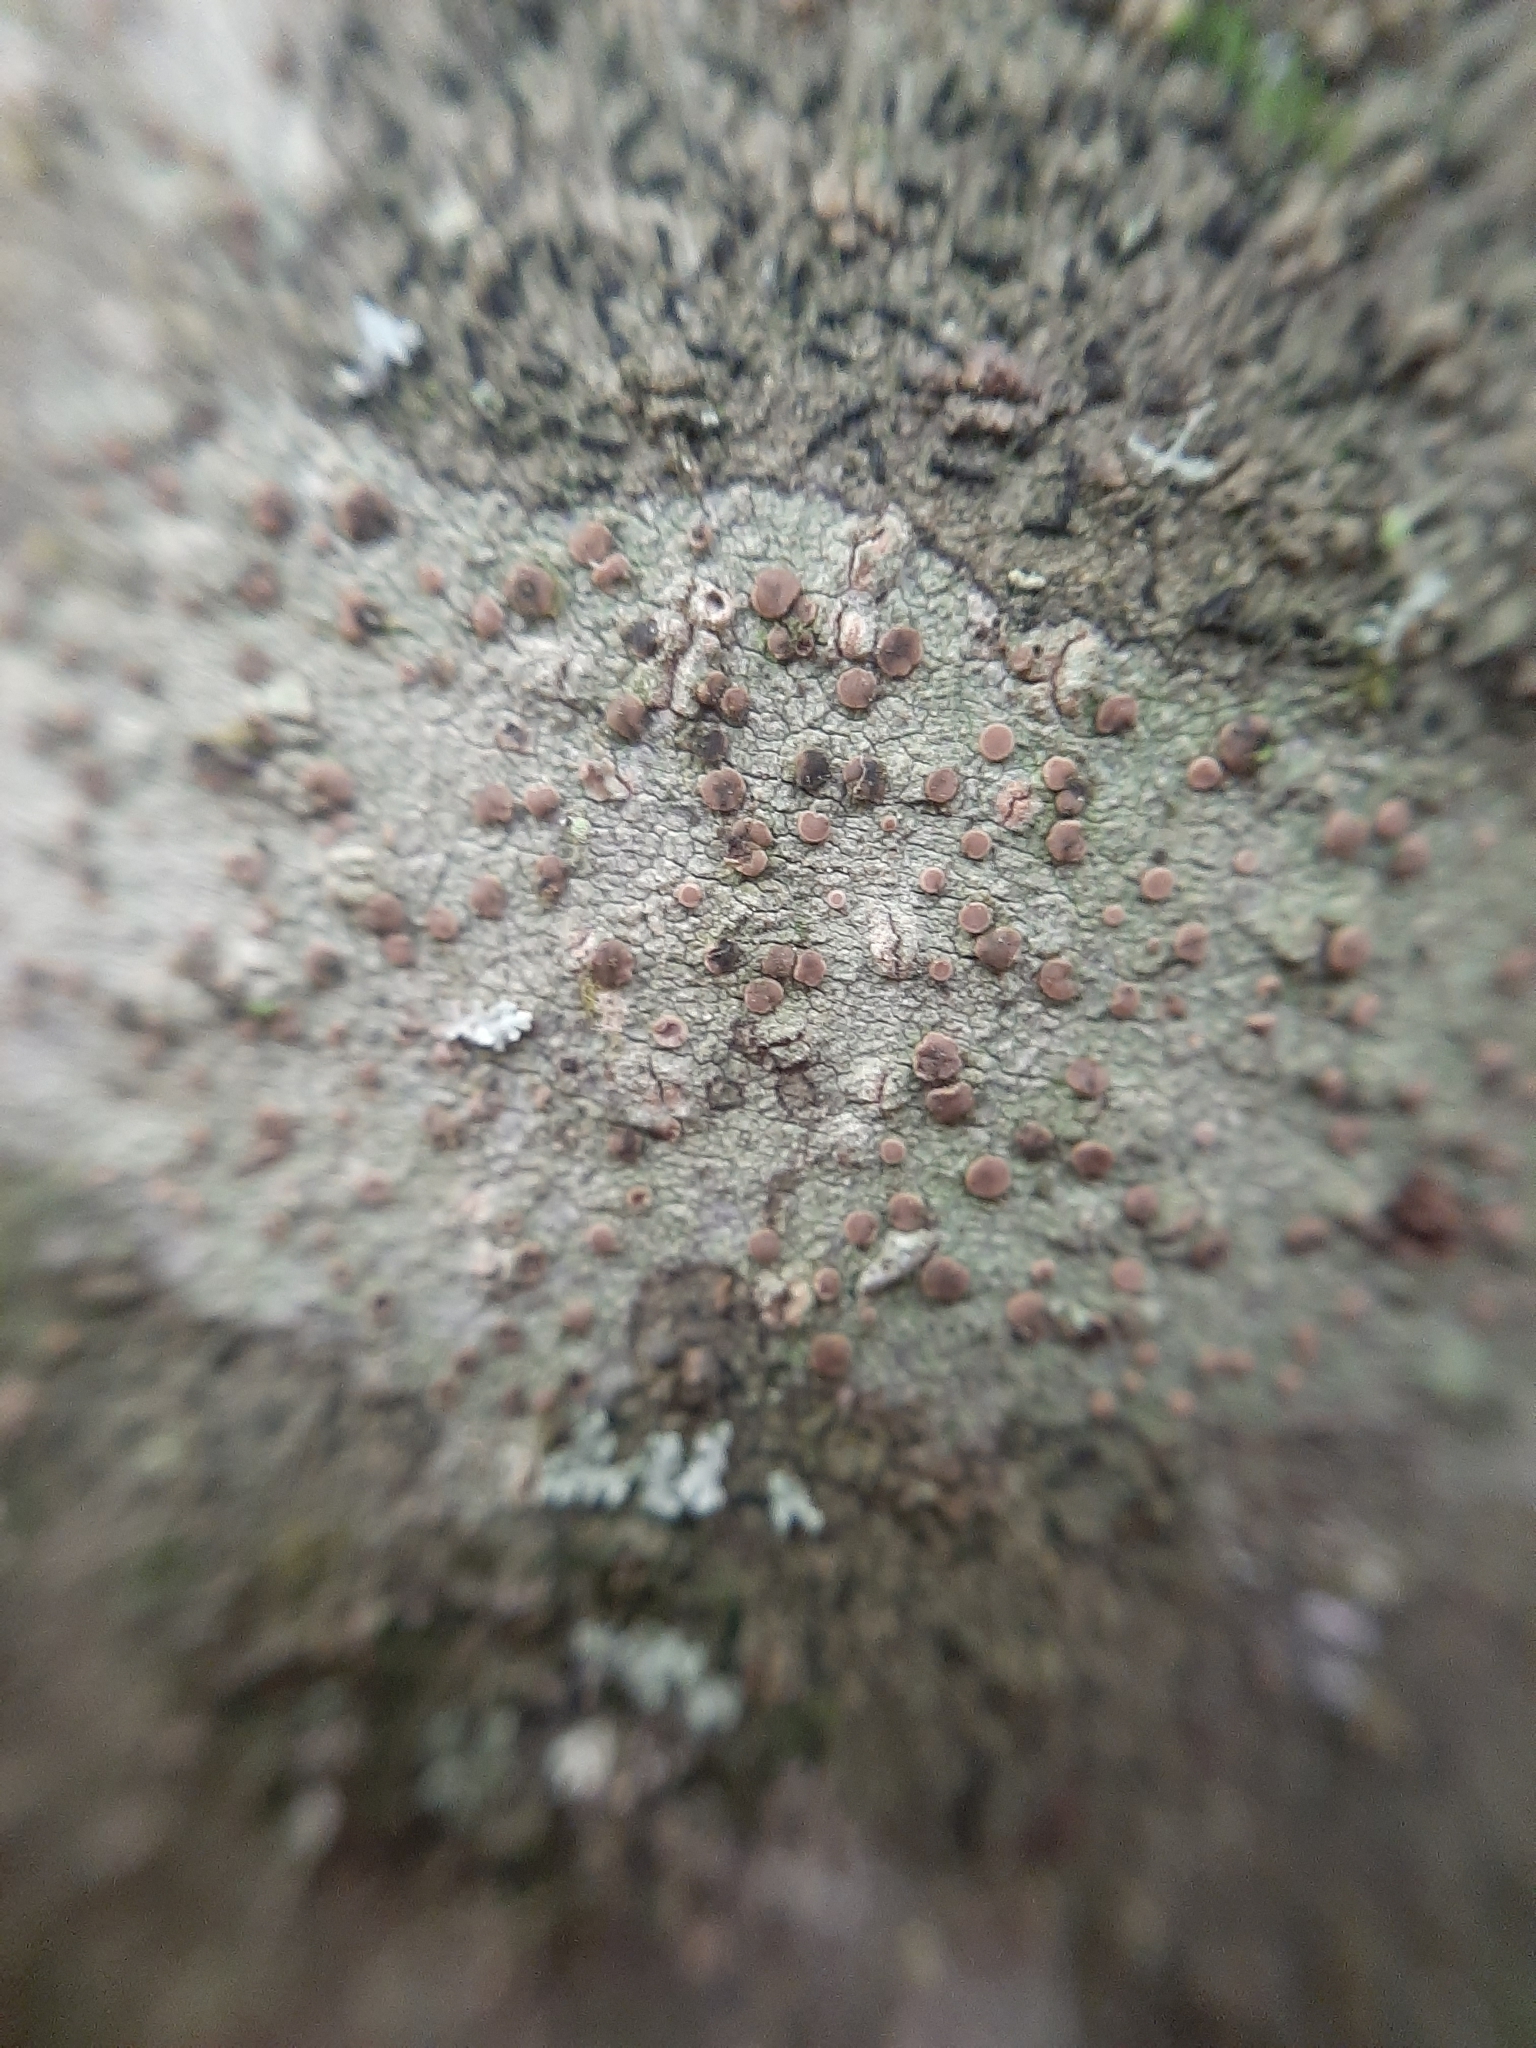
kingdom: Fungi
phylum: Ascomycota
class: Lecanoromycetes
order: Ostropales
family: Phlyctidaceae
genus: Phlyctella
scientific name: Phlyctella
